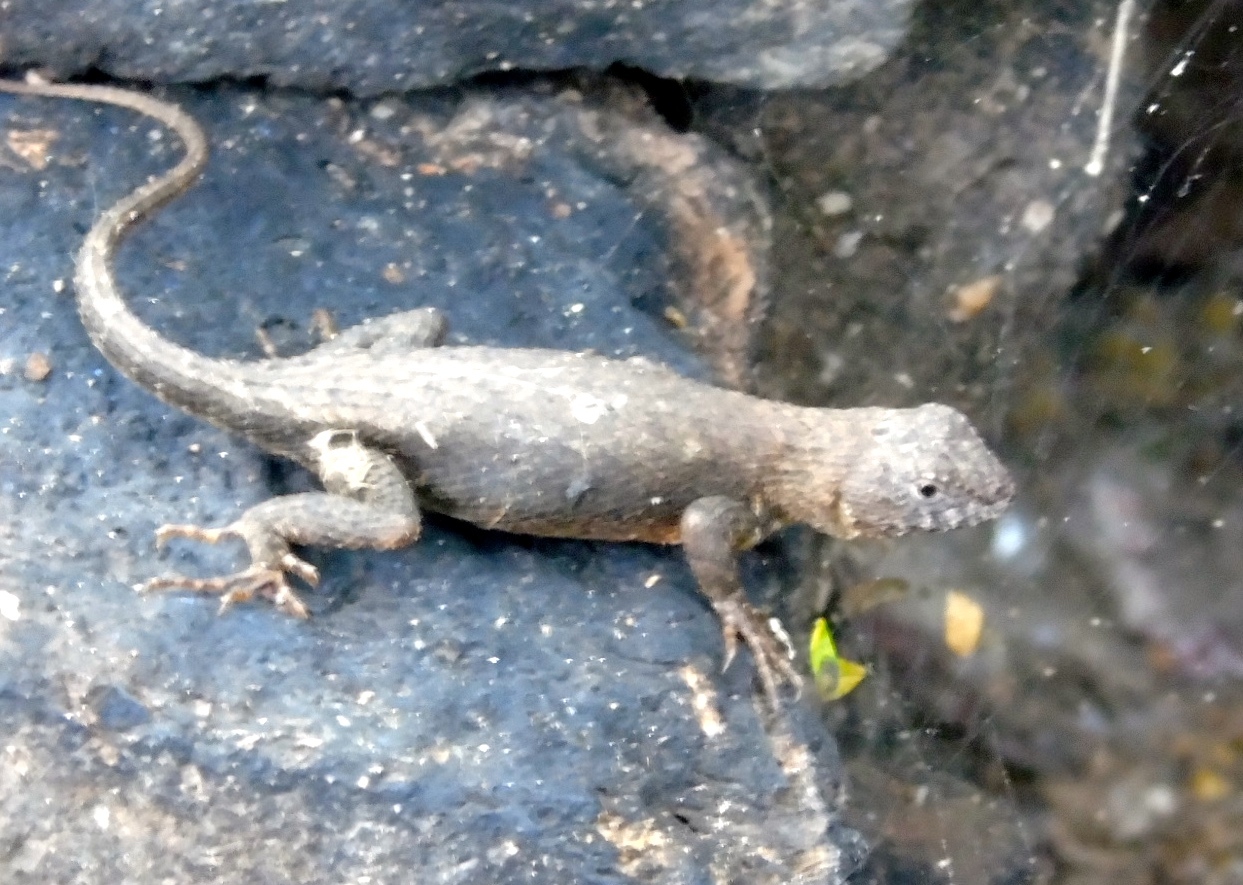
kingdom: Animalia
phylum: Chordata
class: Squamata
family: Phrynosomatidae
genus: Sceloporus
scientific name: Sceloporus nelsoni
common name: Nelson's spiny lizard
